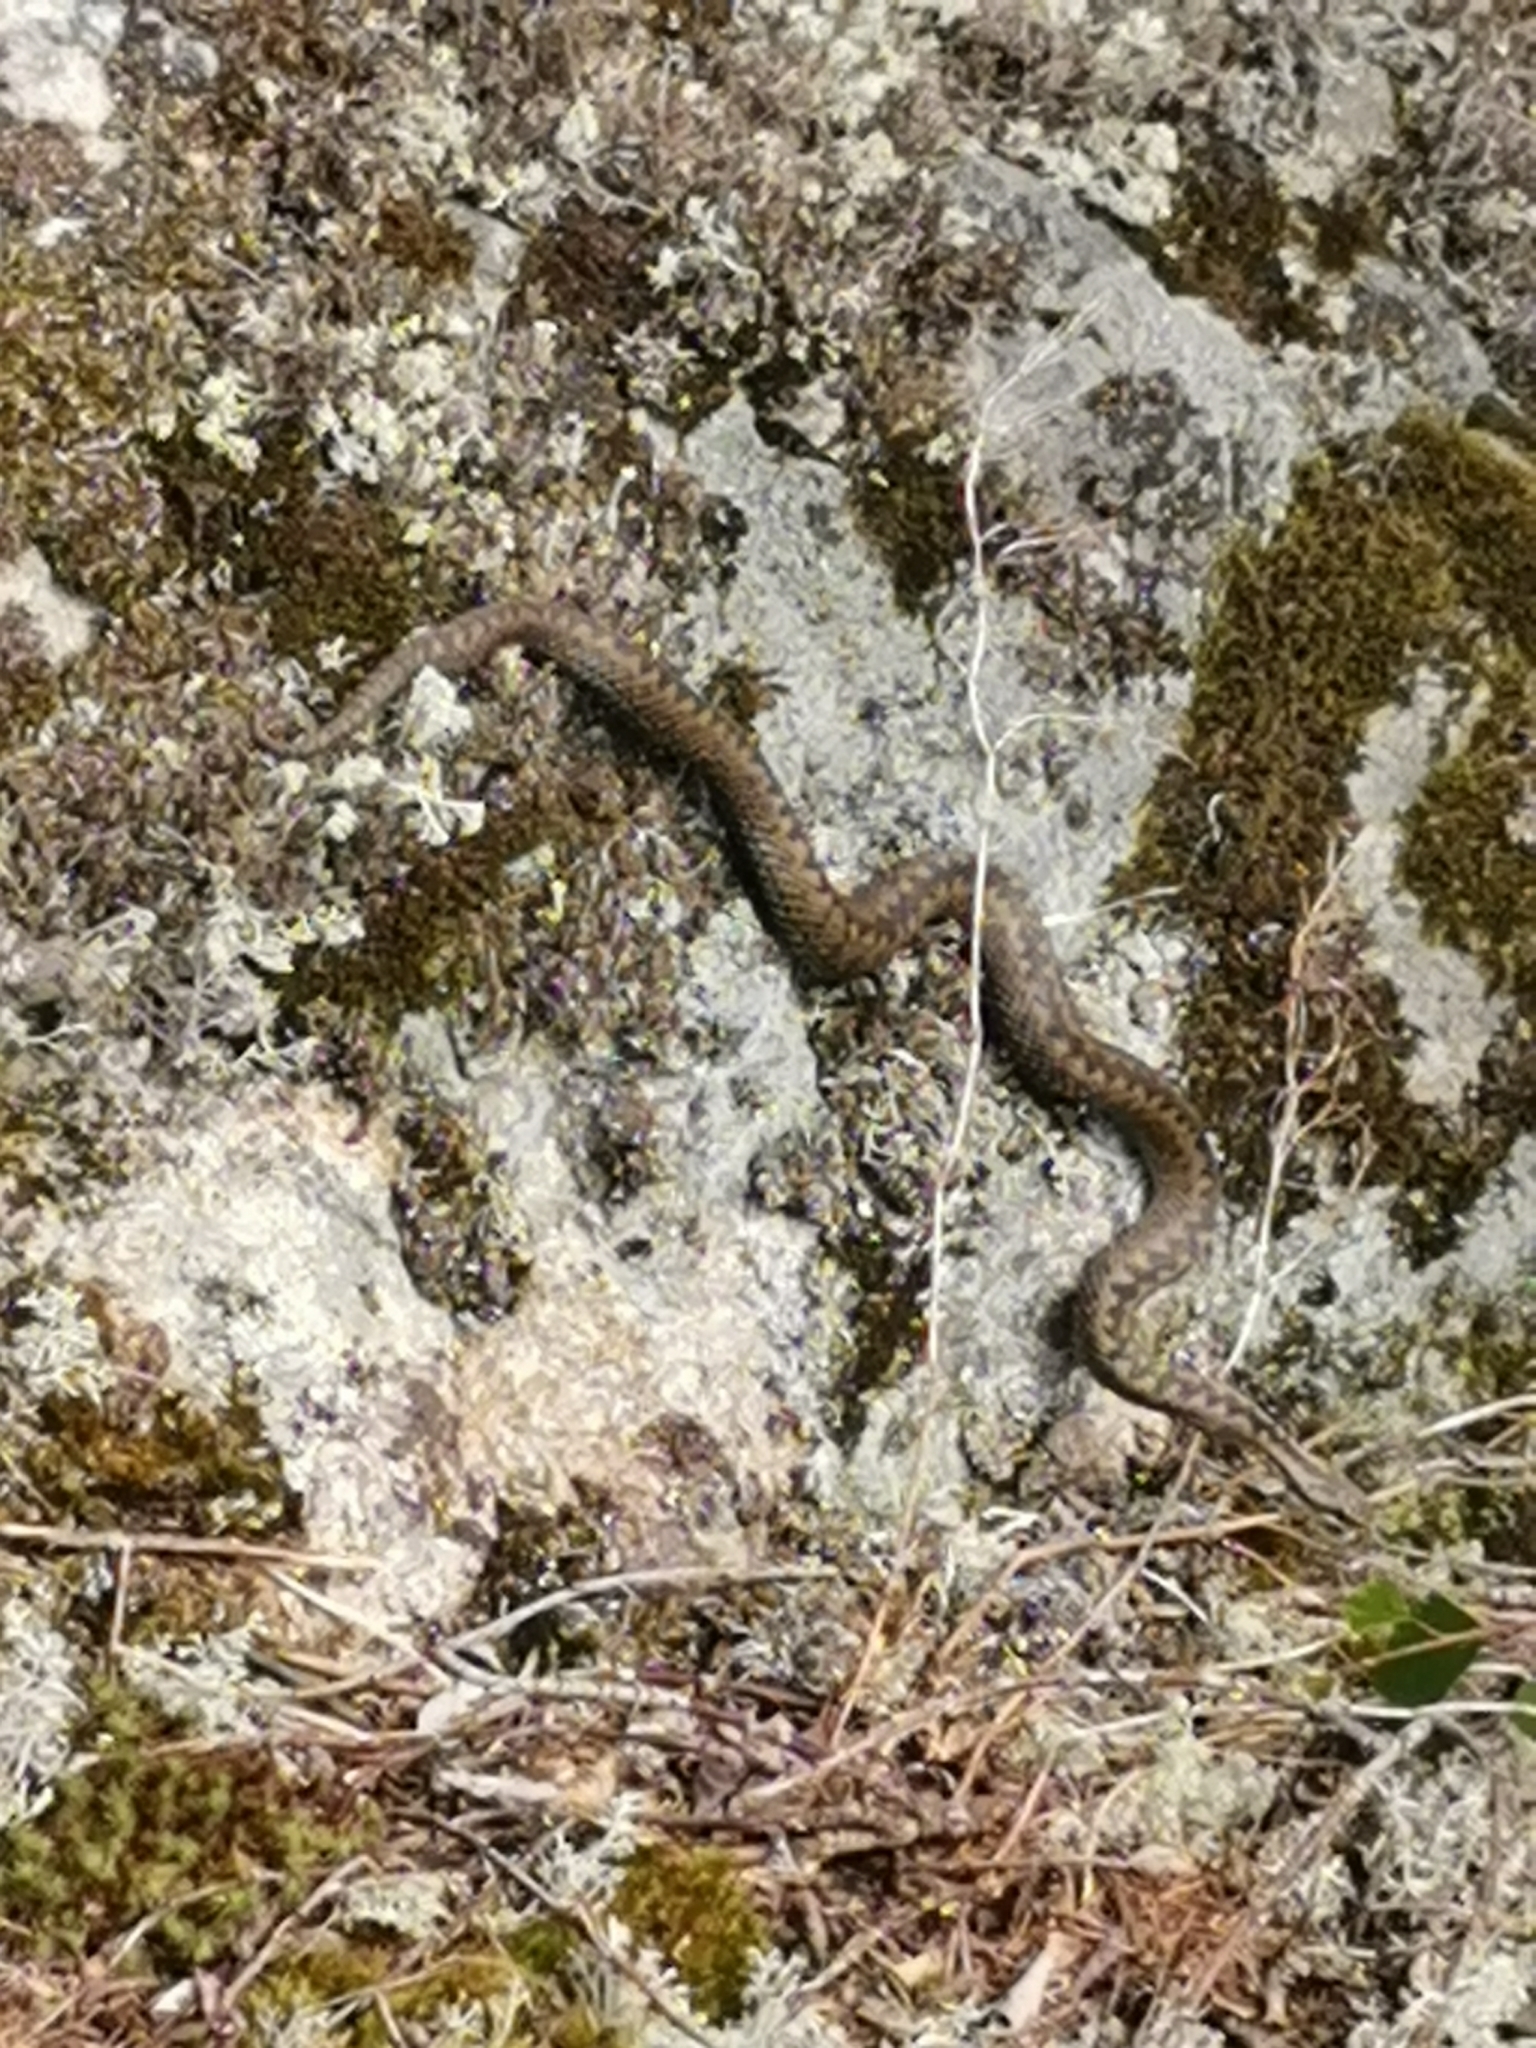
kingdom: Animalia
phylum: Chordata
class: Squamata
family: Viperidae
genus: Vipera
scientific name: Vipera berus
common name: Adder
